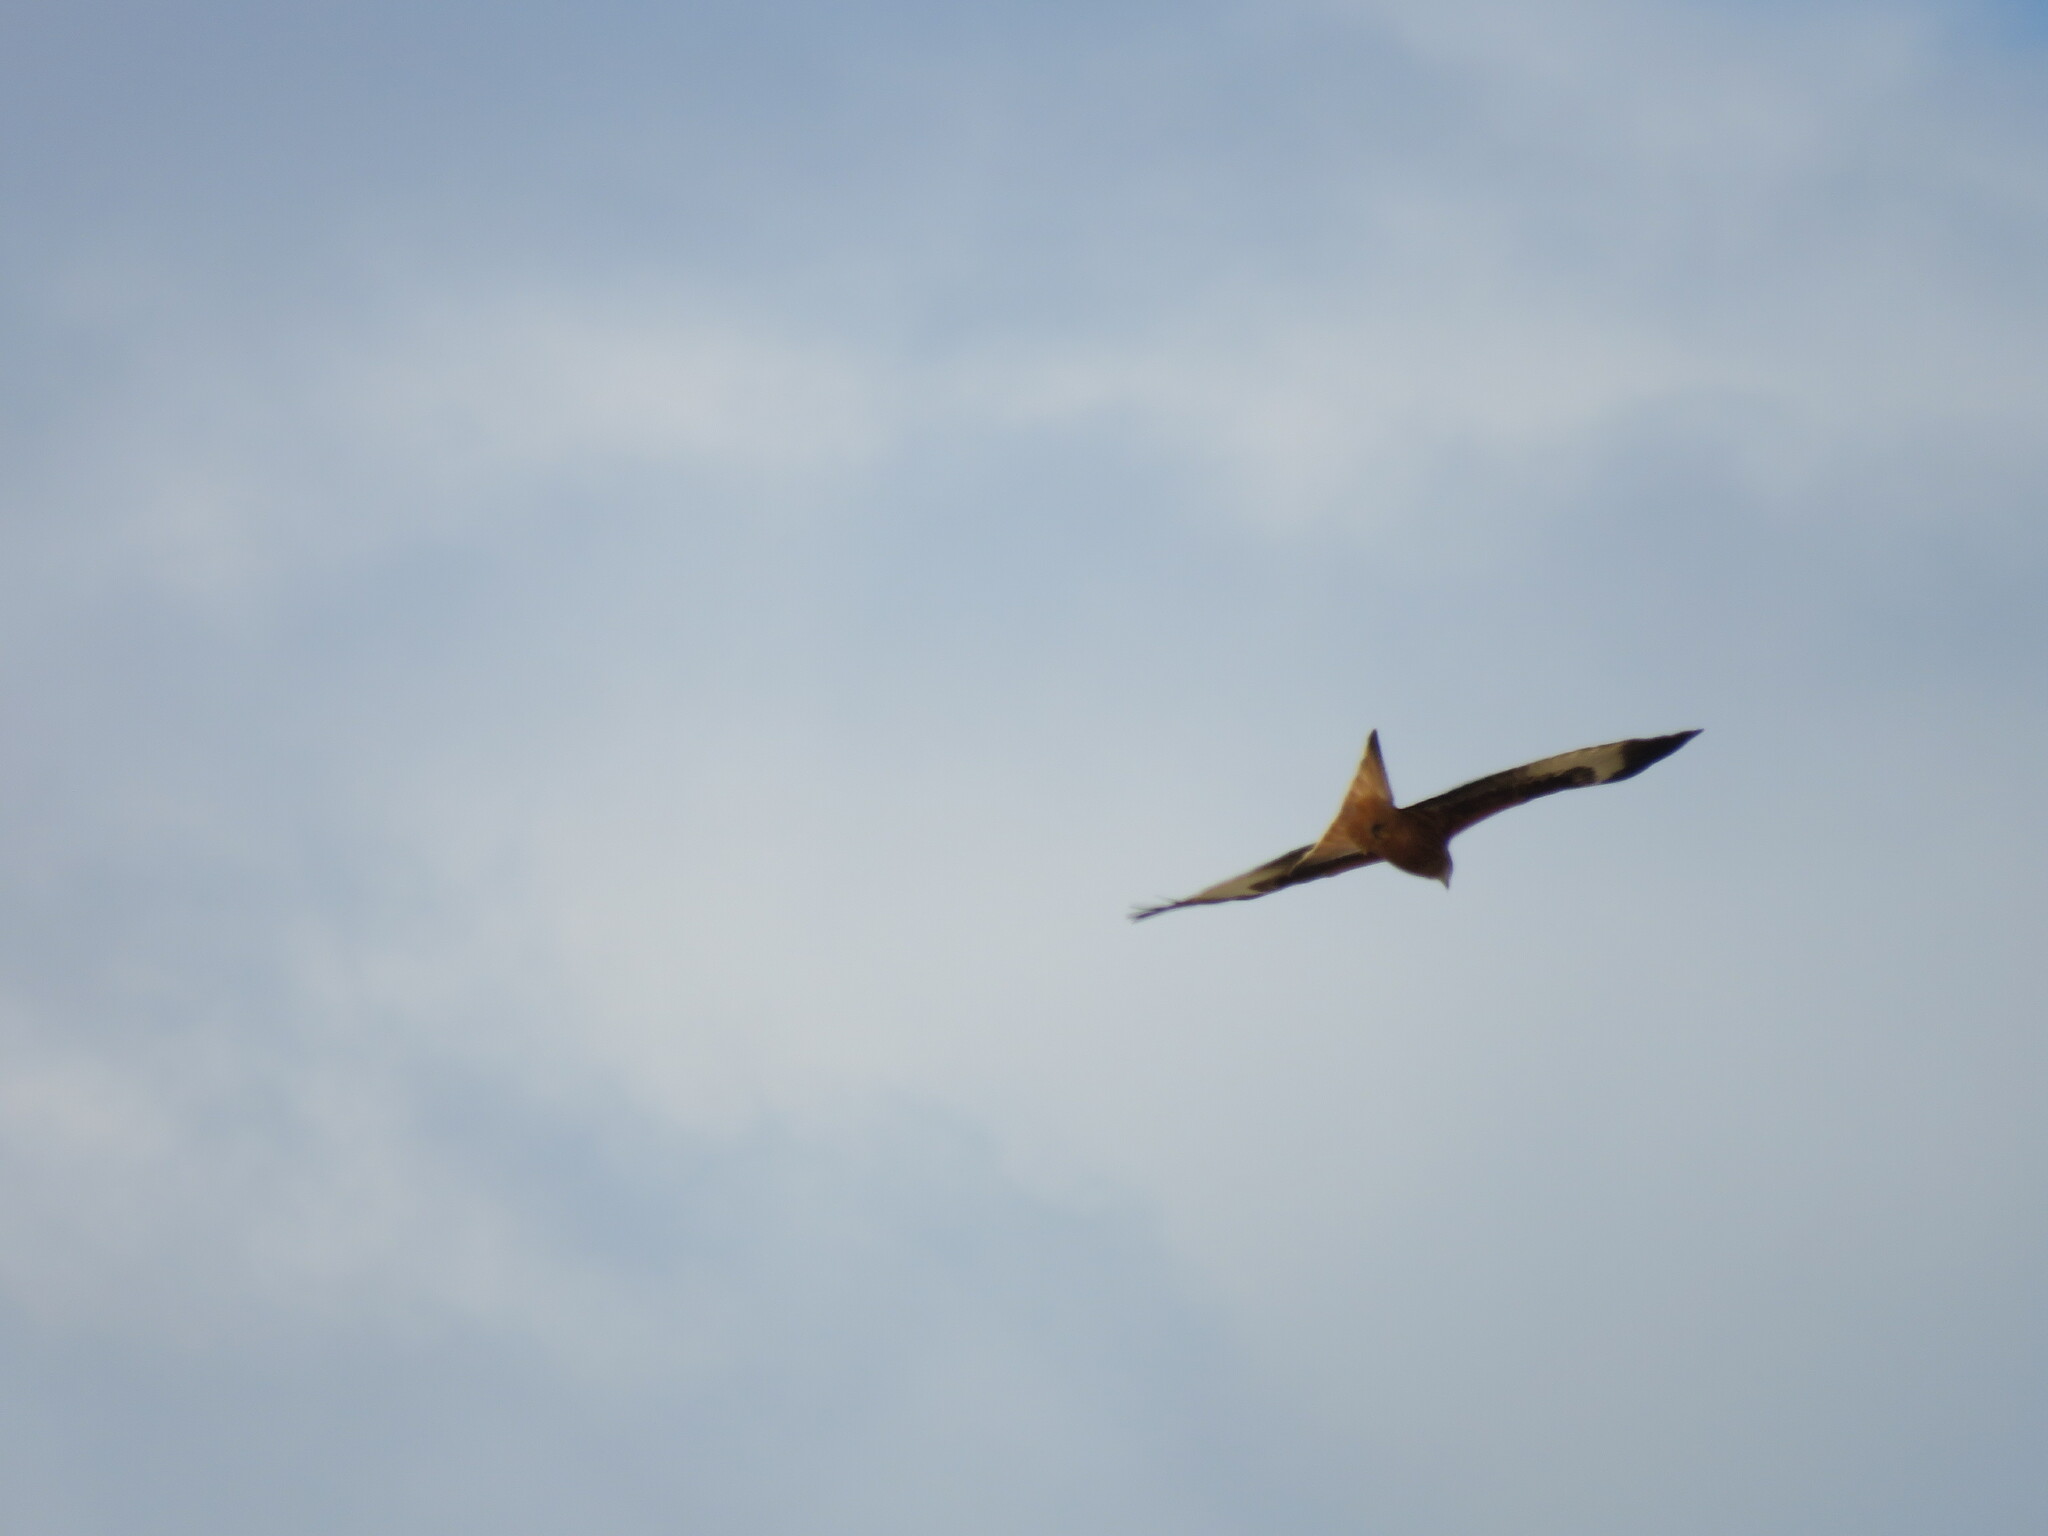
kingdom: Animalia
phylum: Chordata
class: Aves
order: Accipitriformes
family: Accipitridae
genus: Milvus
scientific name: Milvus milvus
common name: Red kite
